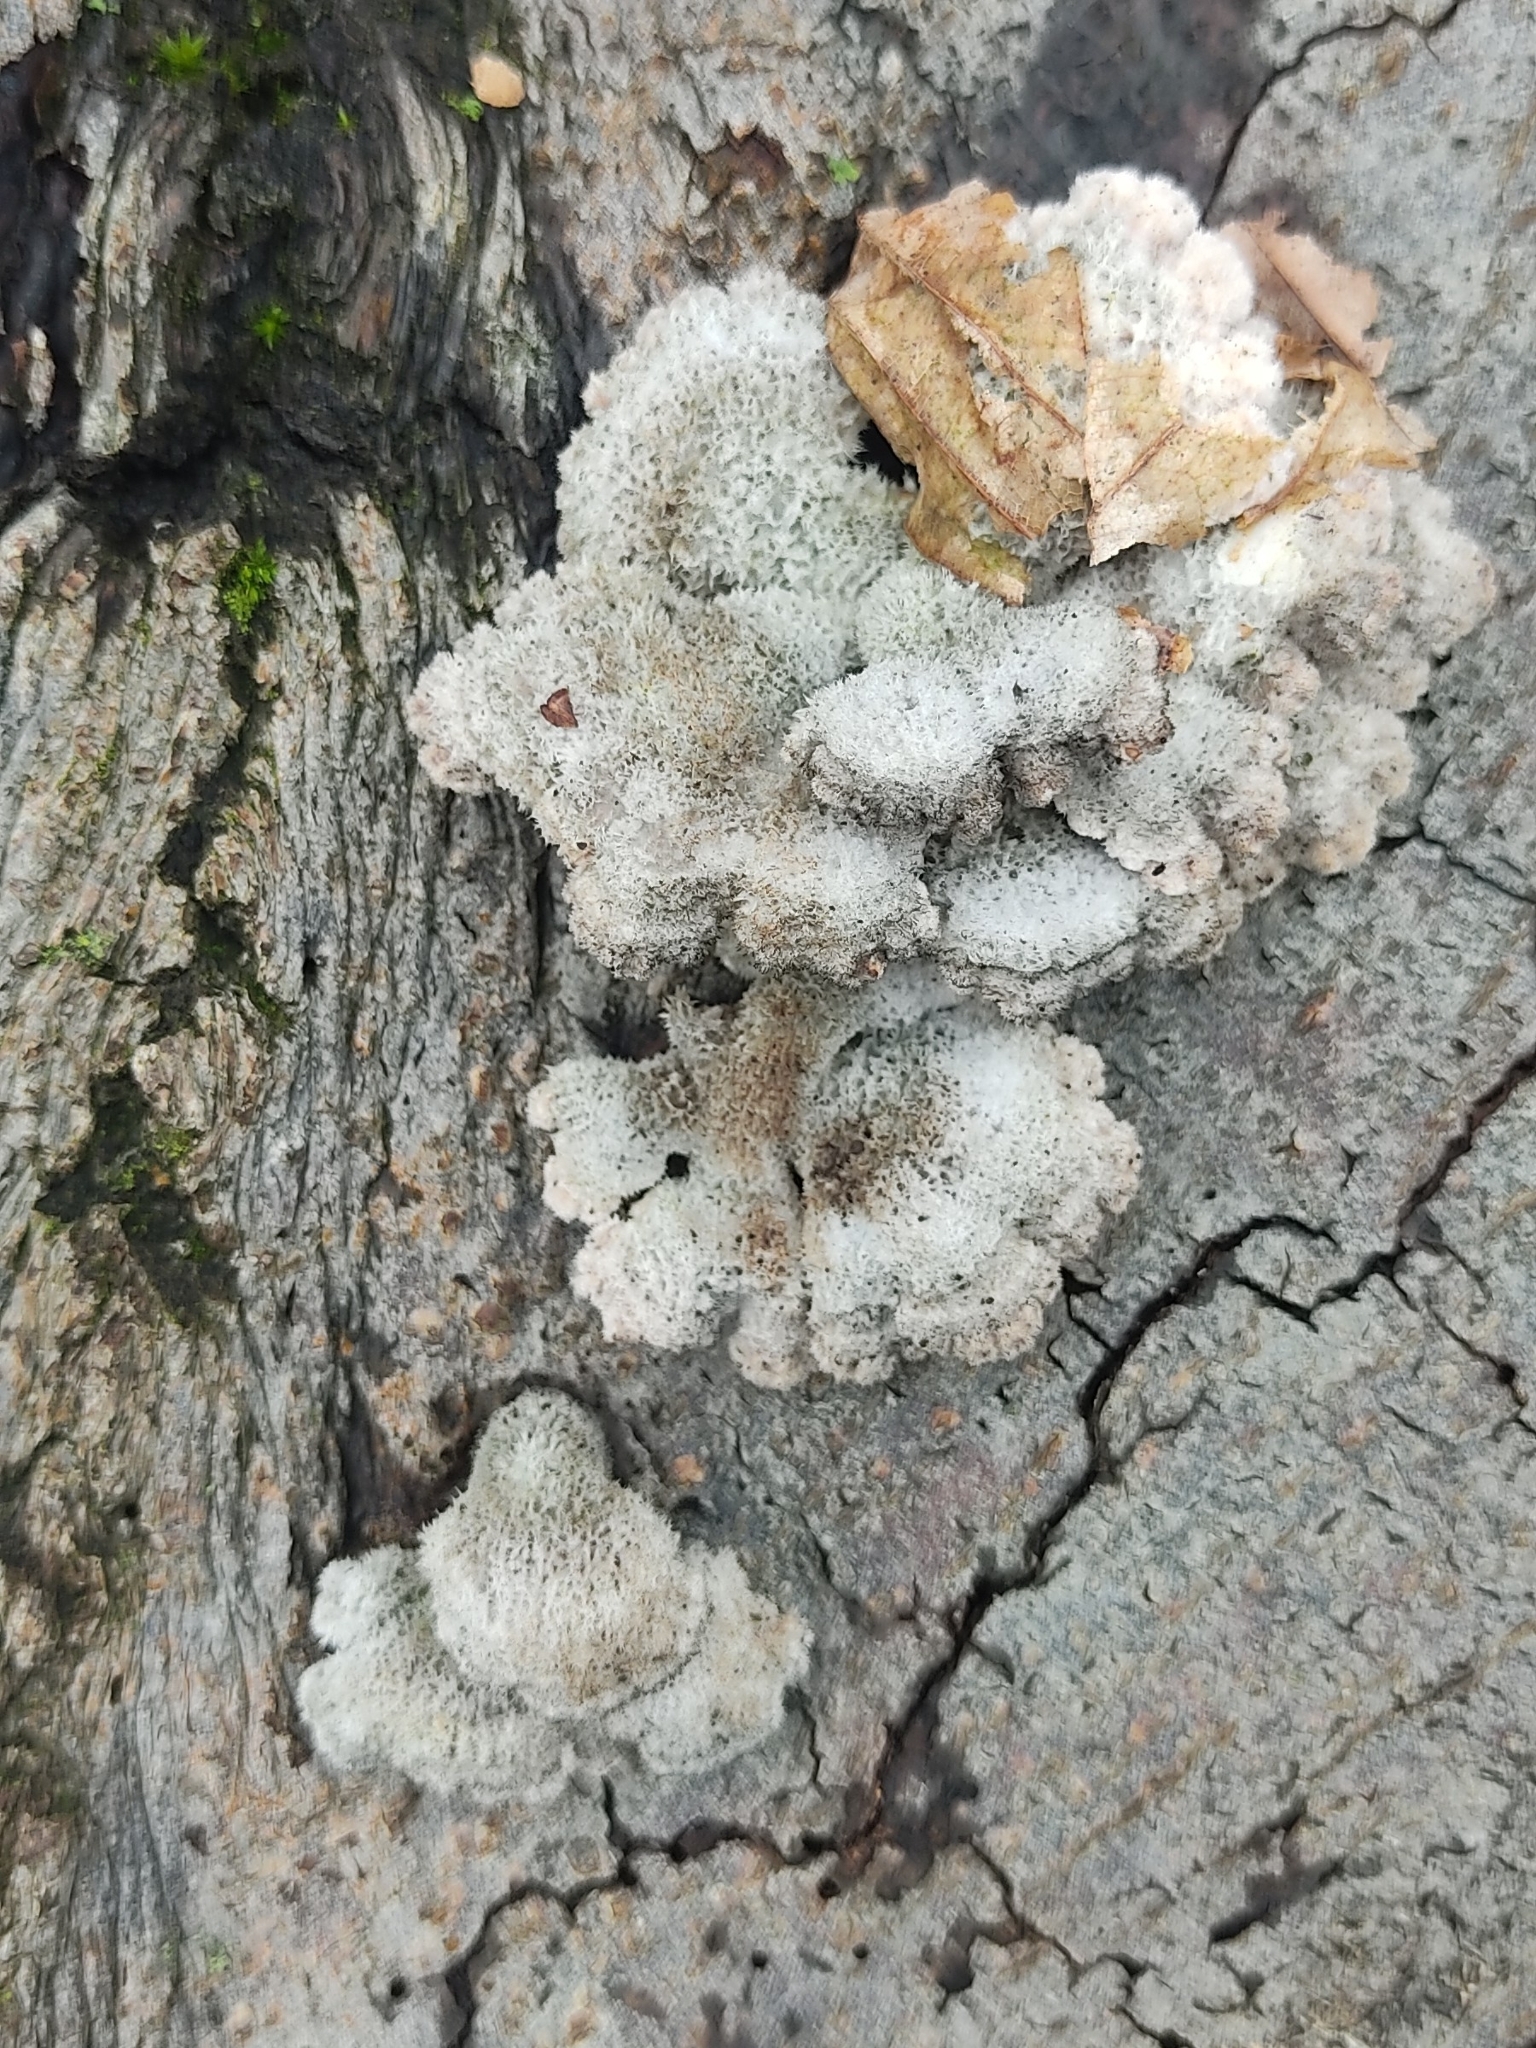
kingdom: Fungi
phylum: Basidiomycota
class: Agaricomycetes
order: Agaricales
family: Schizophyllaceae
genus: Schizophyllum
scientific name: Schizophyllum commune
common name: Common porecrust
